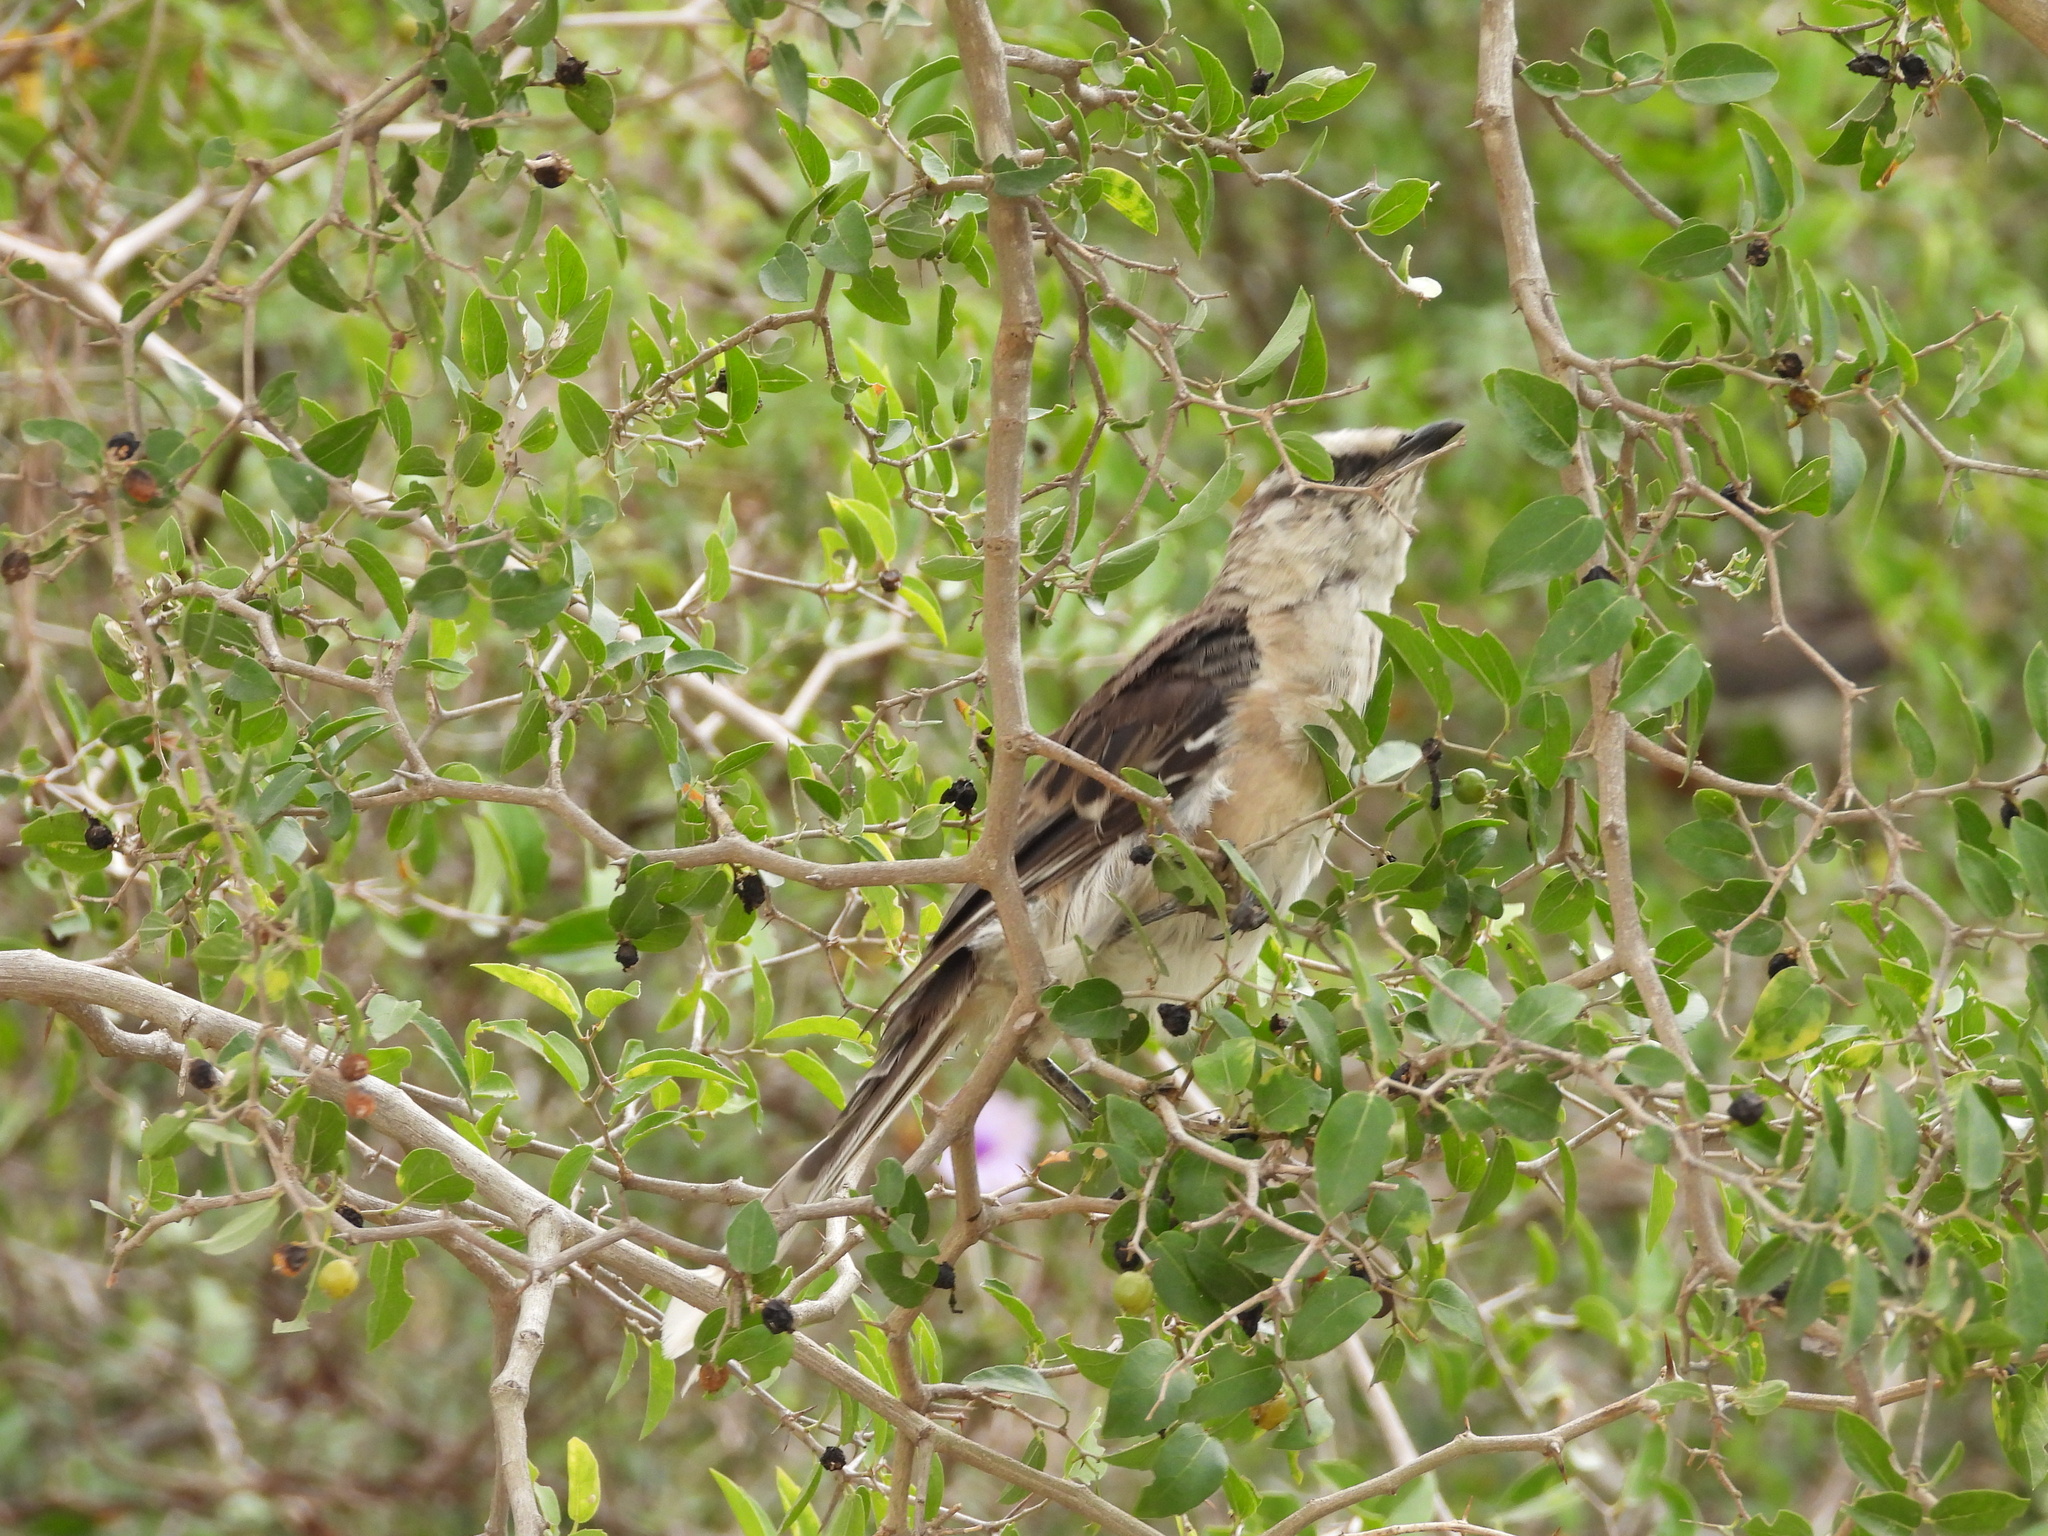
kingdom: Animalia
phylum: Chordata
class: Aves
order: Passeriformes
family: Mimidae
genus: Mimus
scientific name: Mimus saturninus
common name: Chalk-browed mockingbird
